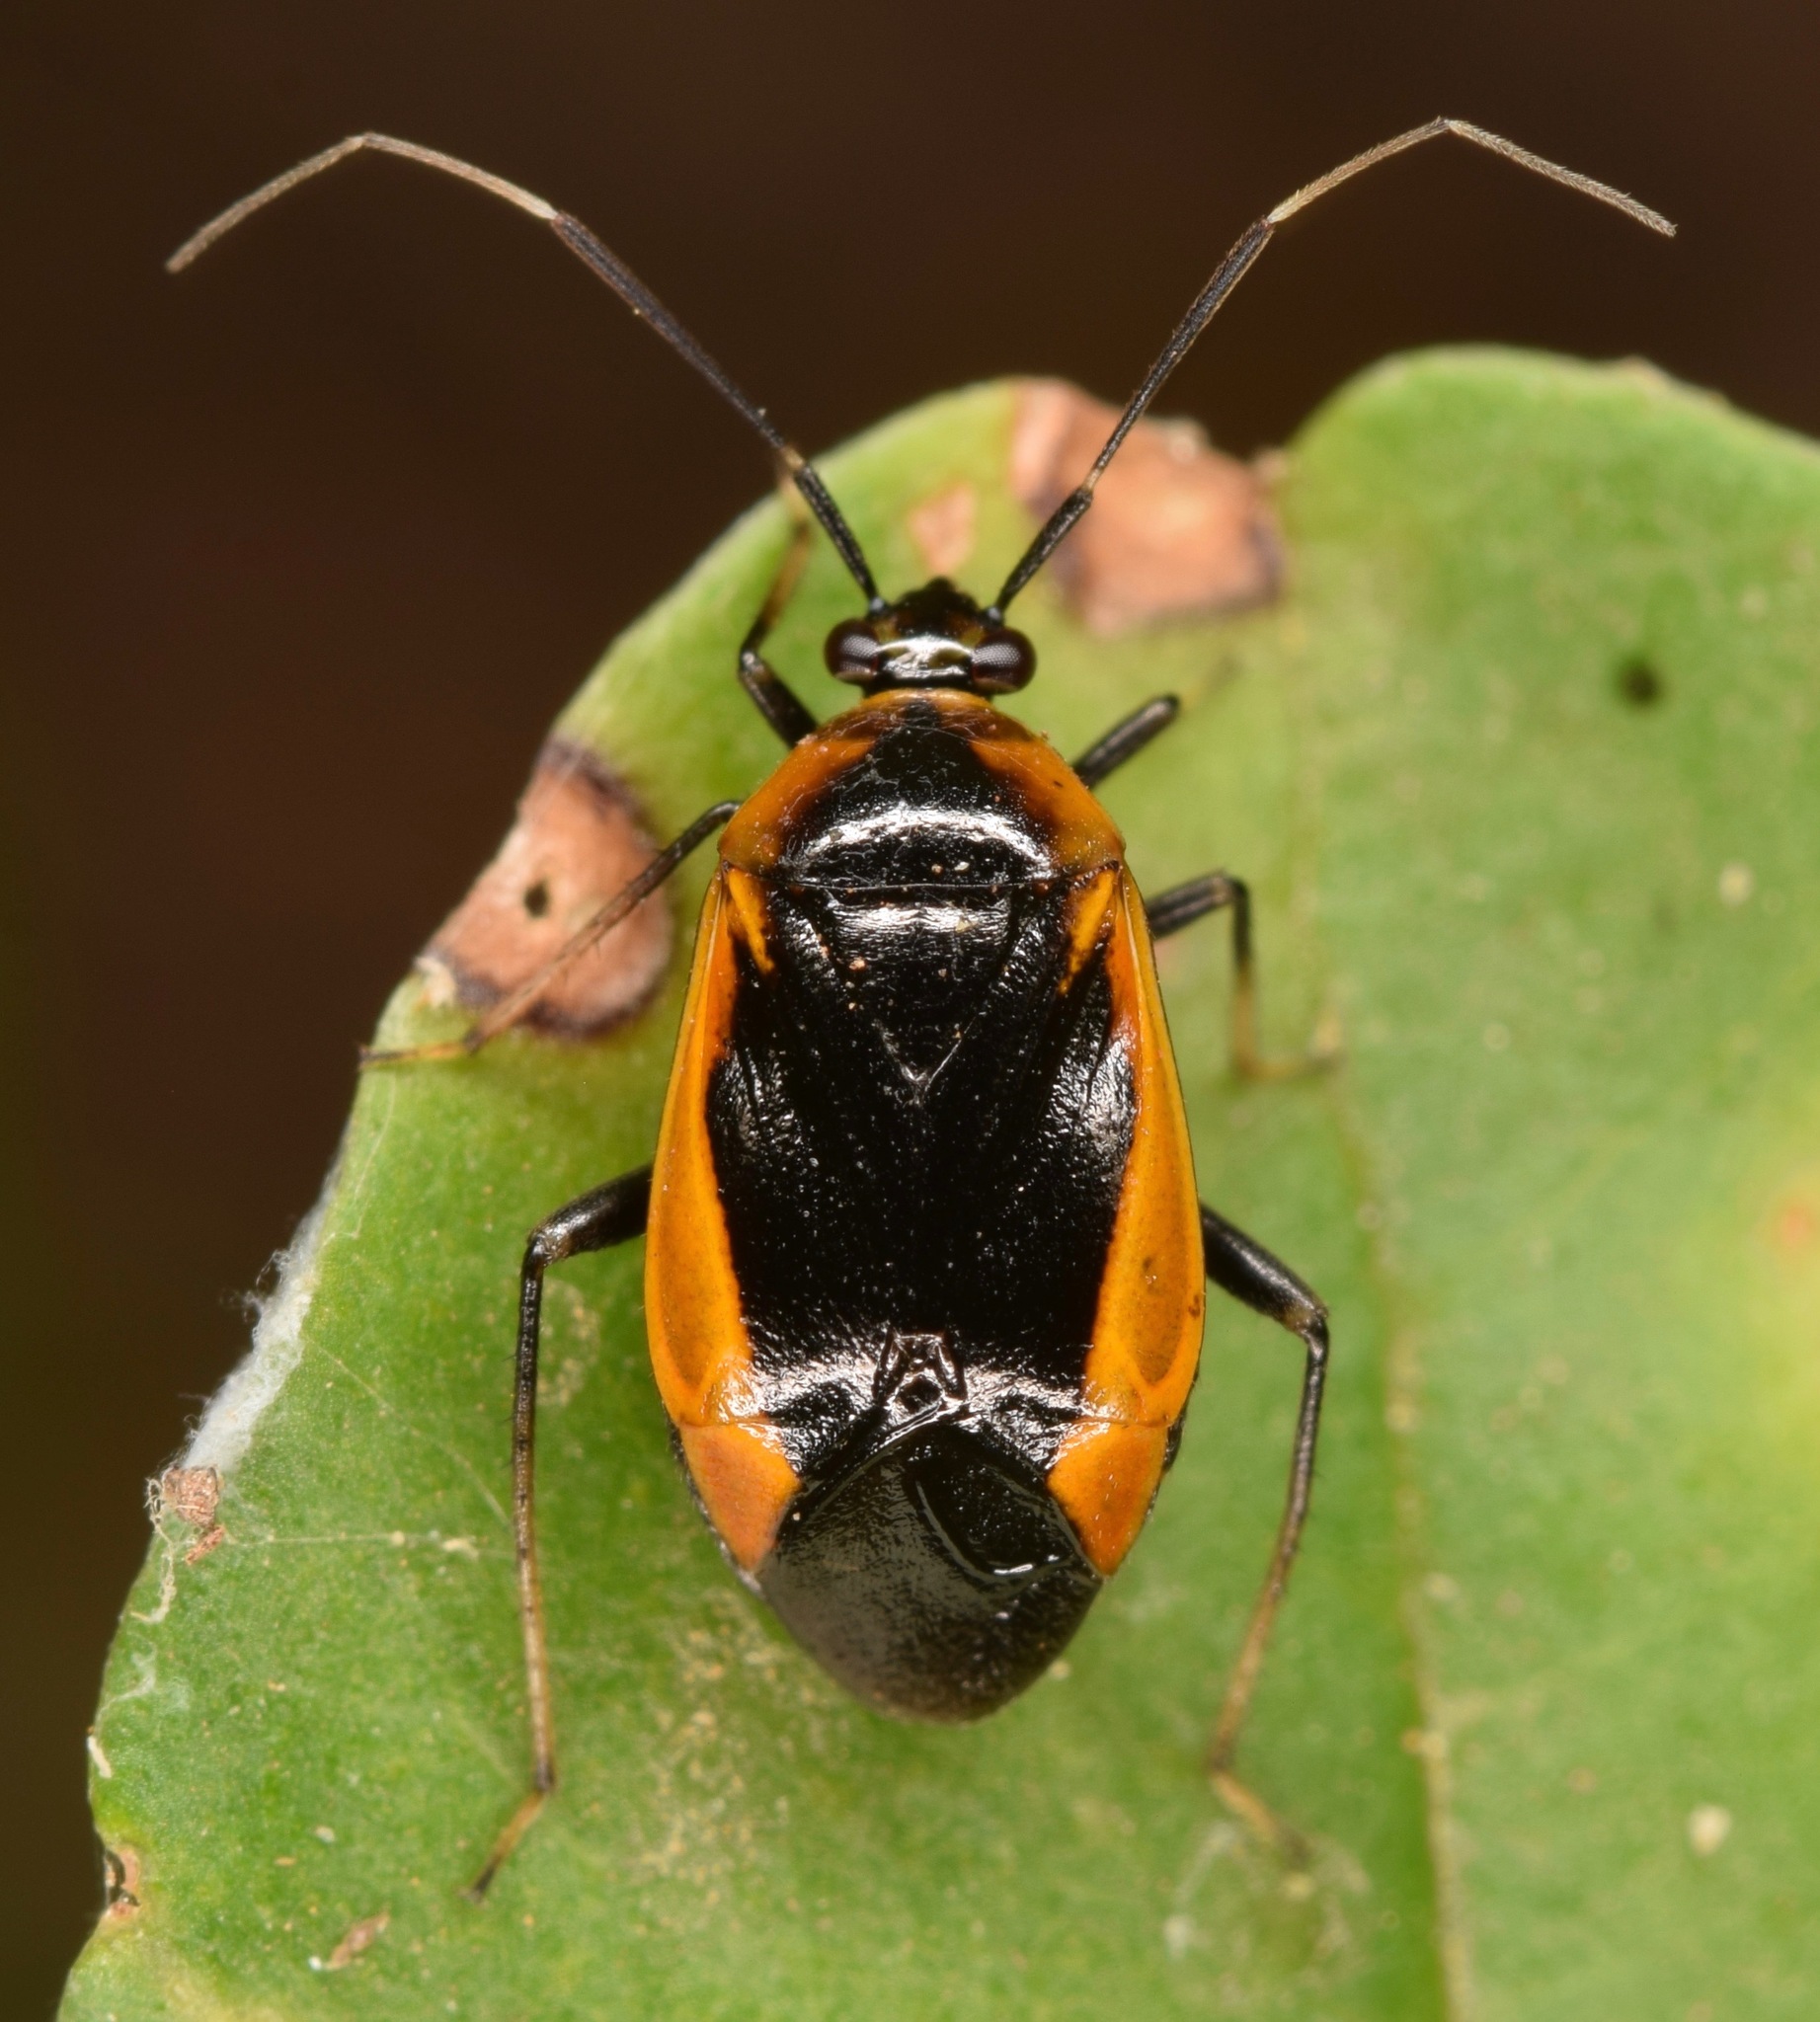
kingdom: Animalia
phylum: Arthropoda
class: Insecta
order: Hemiptera
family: Miridae
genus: Metriorrhynchomiris
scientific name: Metriorrhynchomiris dislocatus
